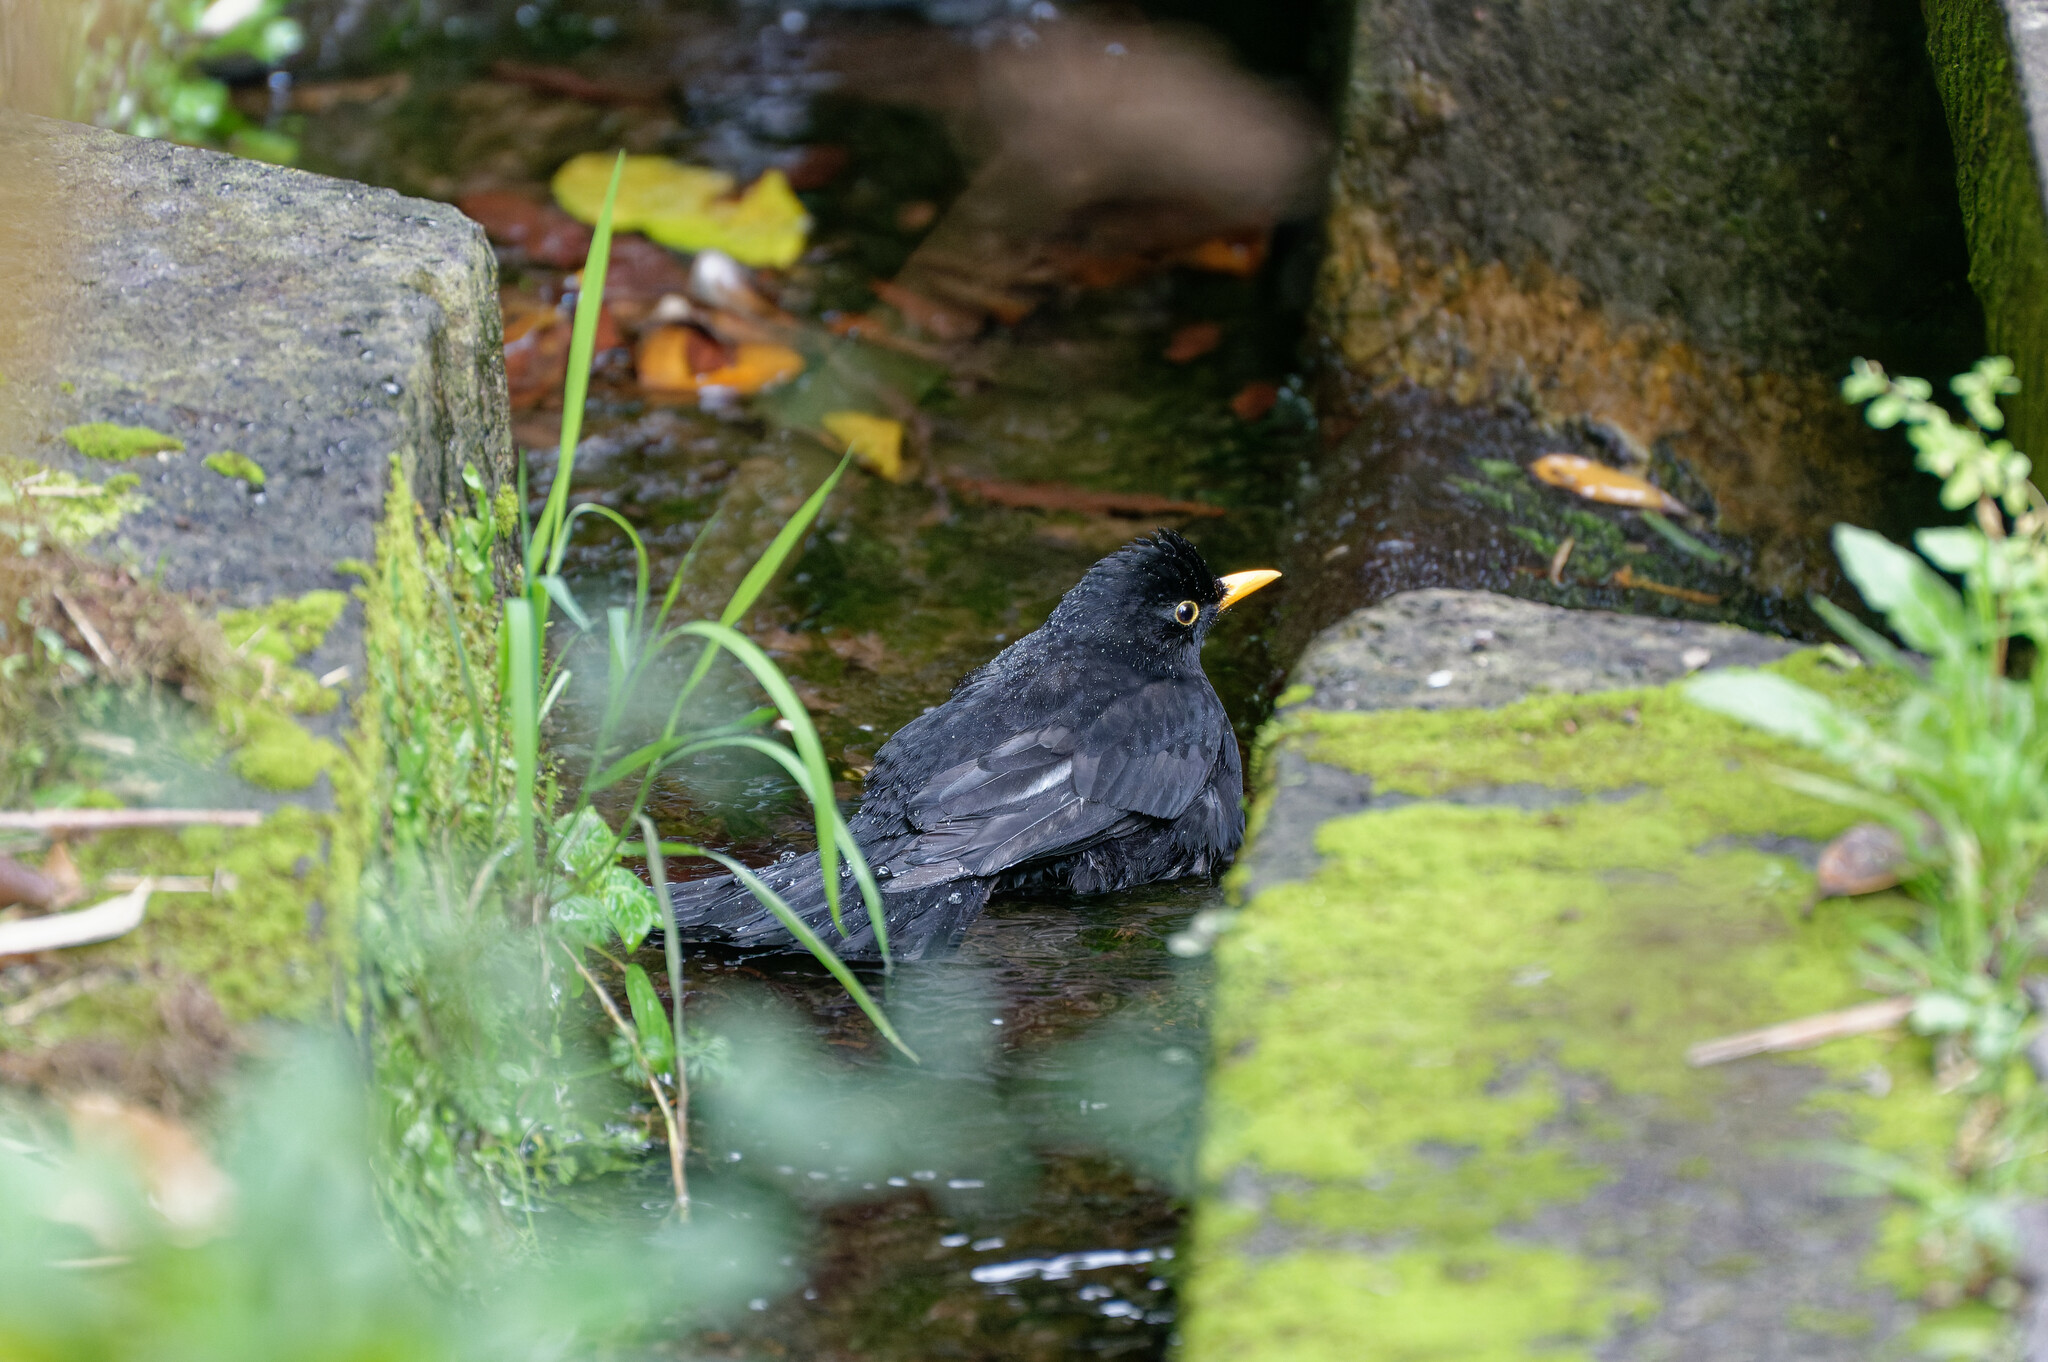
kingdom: Animalia
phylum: Chordata
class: Aves
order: Passeriformes
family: Turdidae
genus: Turdus
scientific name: Turdus merula
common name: Common blackbird
